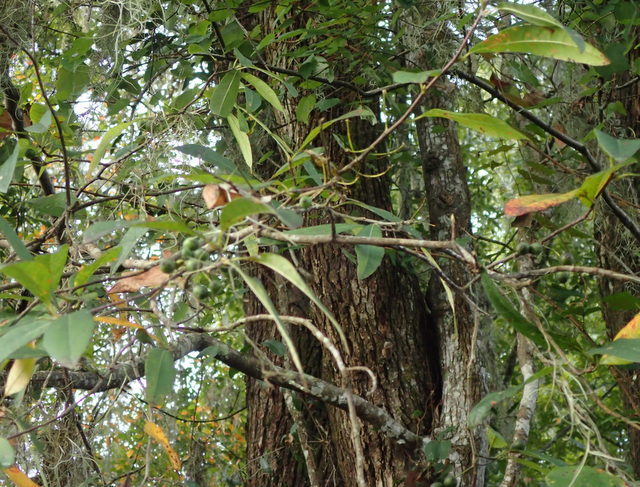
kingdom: Plantae
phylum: Tracheophyta
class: Magnoliopsida
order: Cornales
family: Nyssaceae
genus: Nyssa
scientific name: Nyssa biflora
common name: Swamp blackgum
